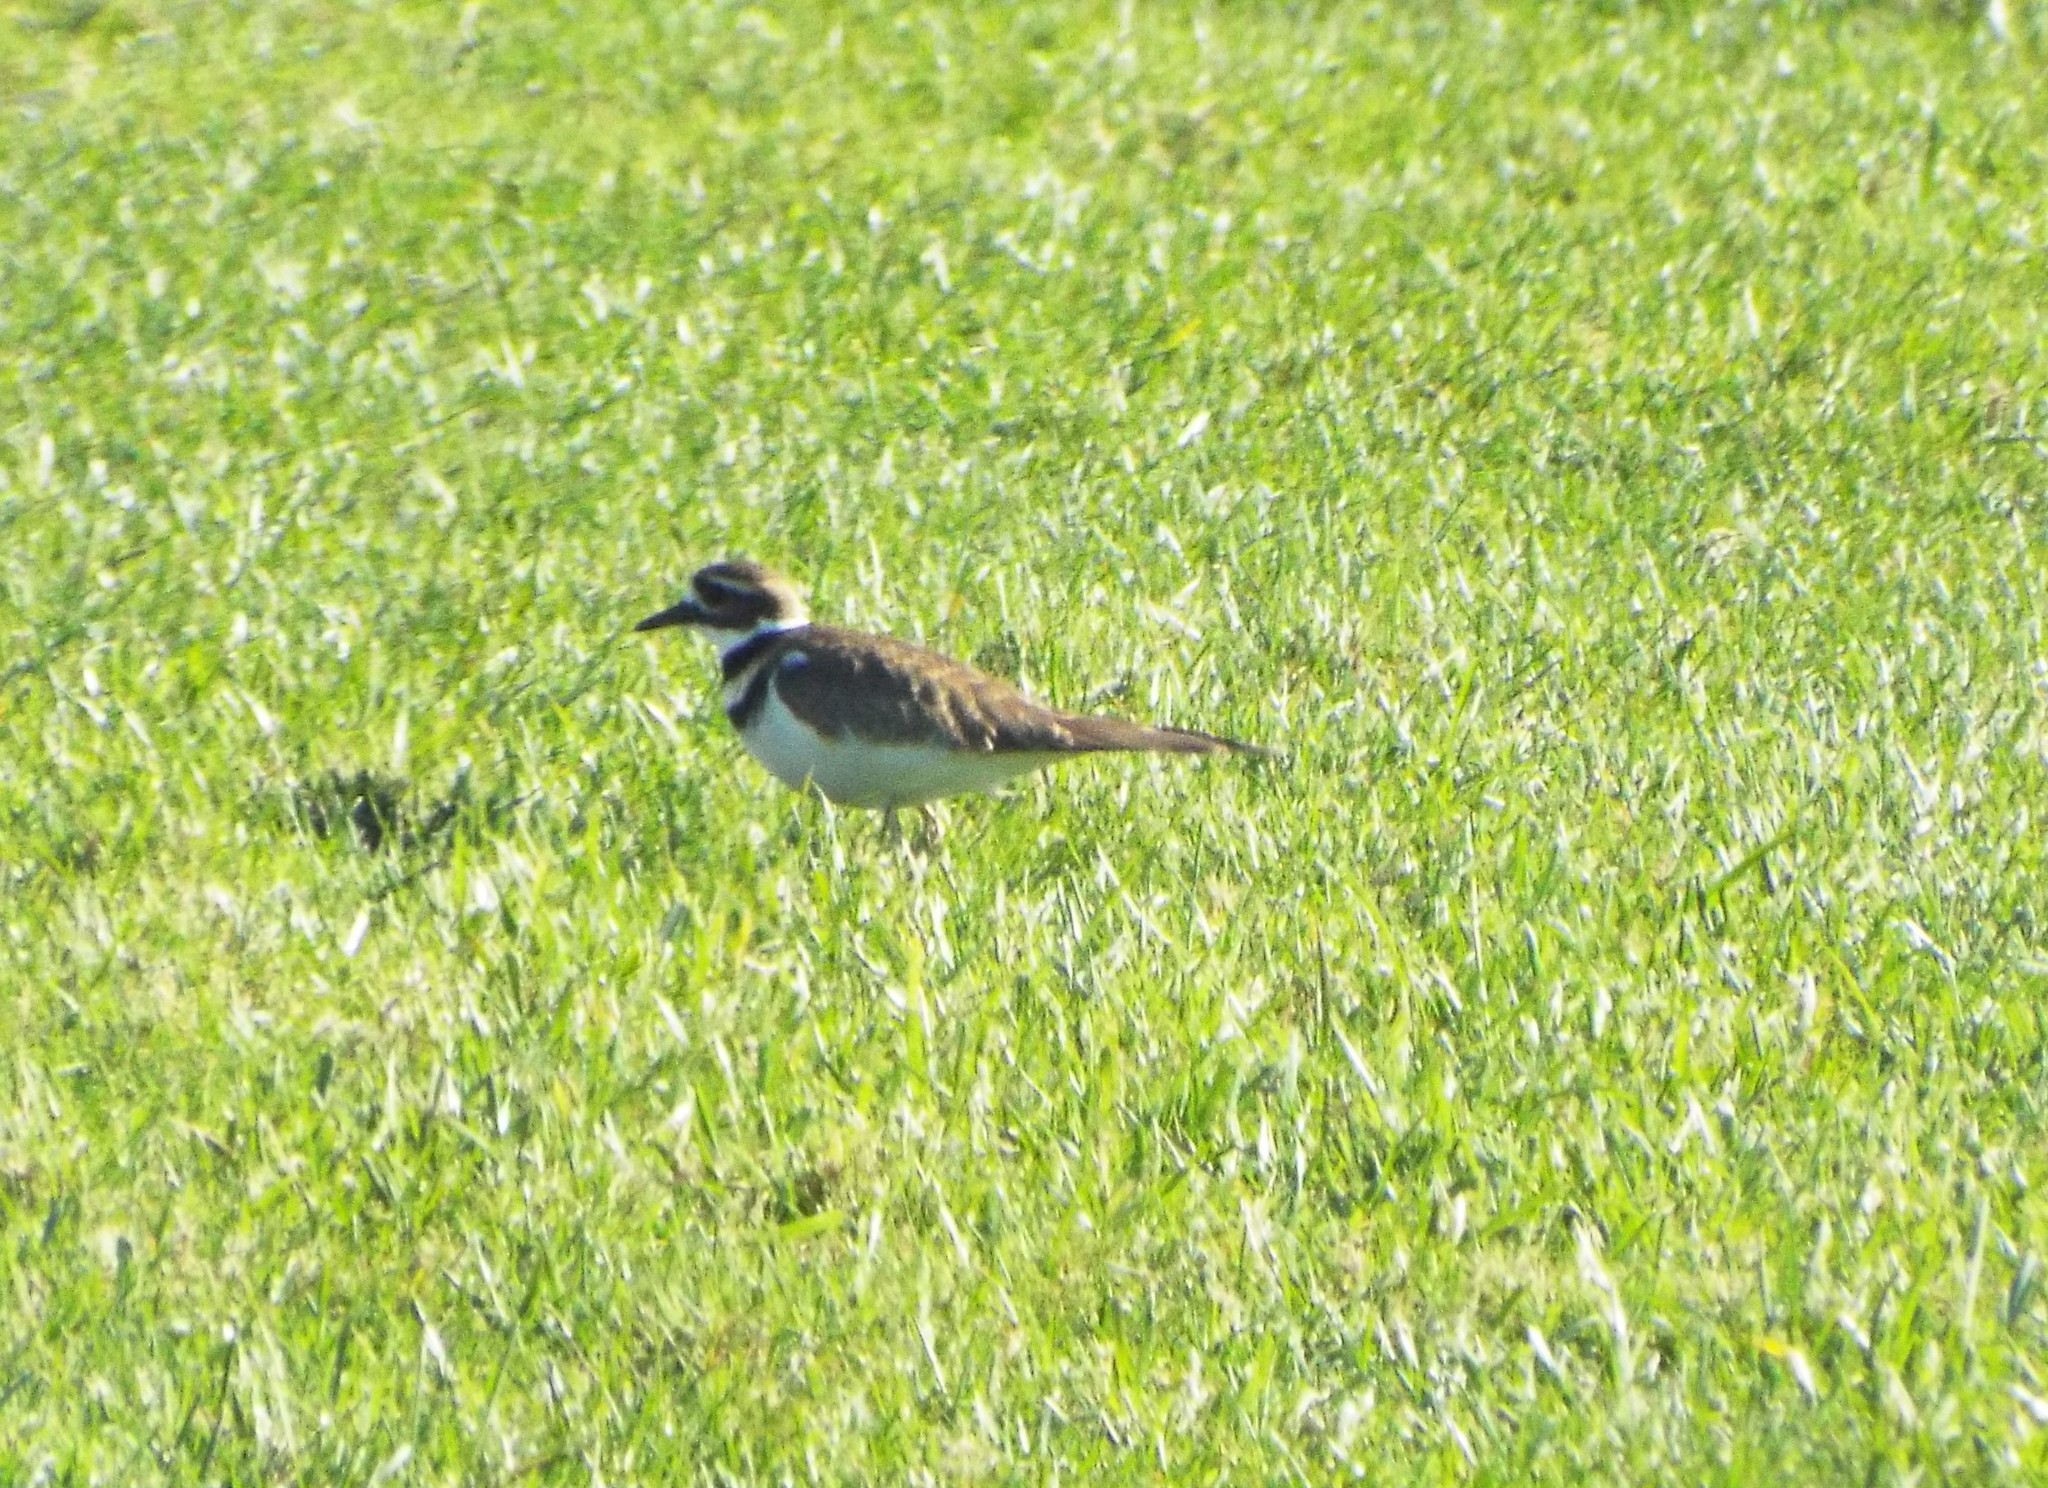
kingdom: Animalia
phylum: Chordata
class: Aves
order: Charadriiformes
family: Charadriidae
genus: Charadrius
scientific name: Charadrius vociferus
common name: Killdeer
